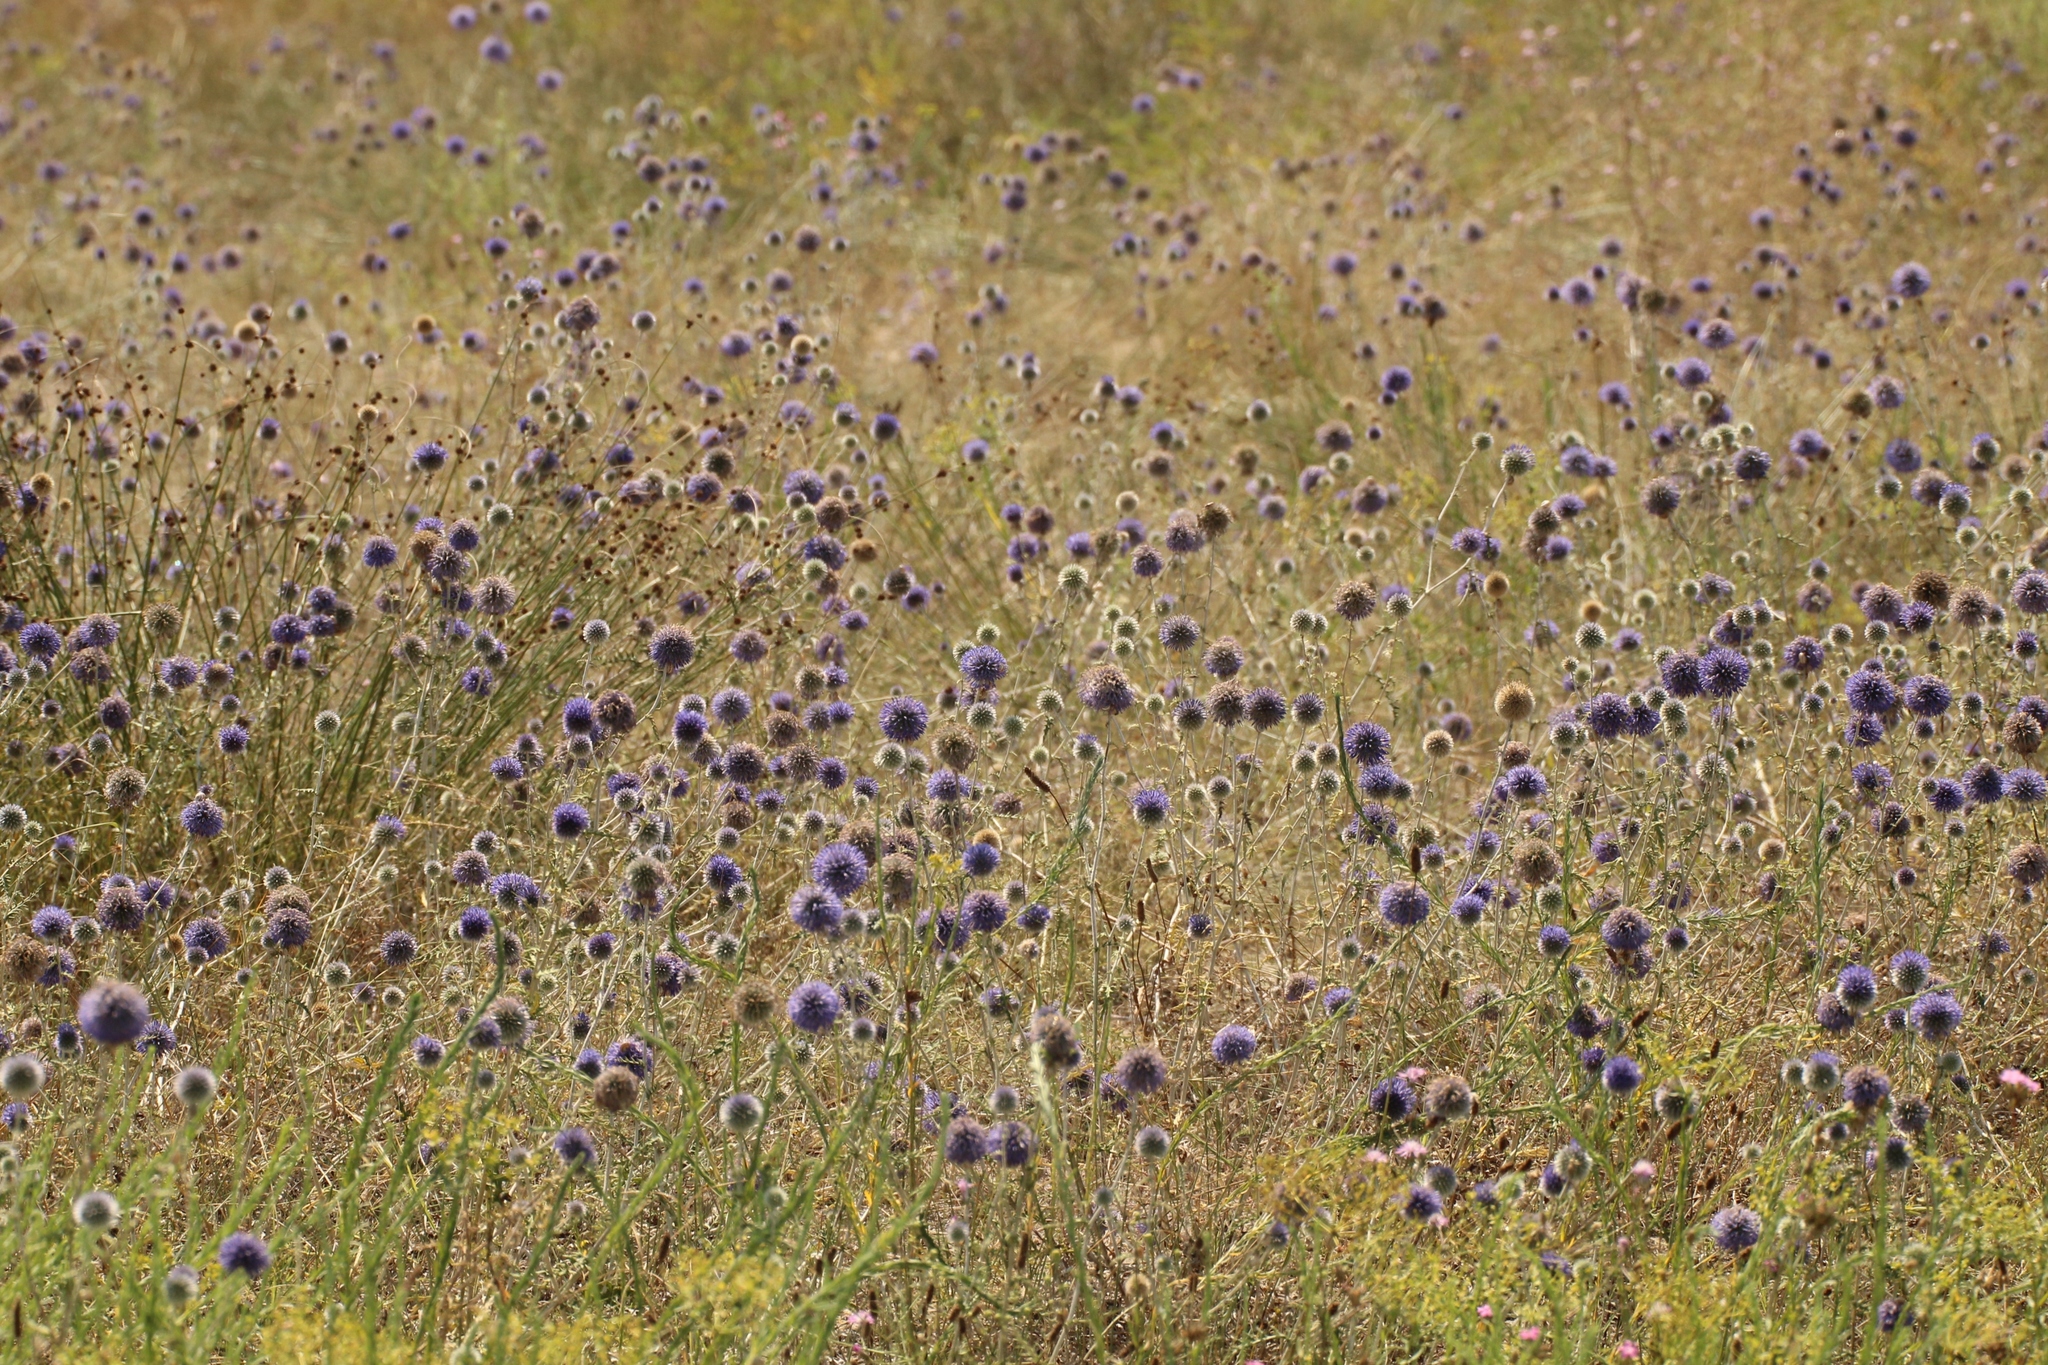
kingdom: Plantae
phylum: Tracheophyta
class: Magnoliopsida
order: Asterales
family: Asteraceae
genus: Echinops
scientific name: Echinops ritro
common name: Globe thistle
